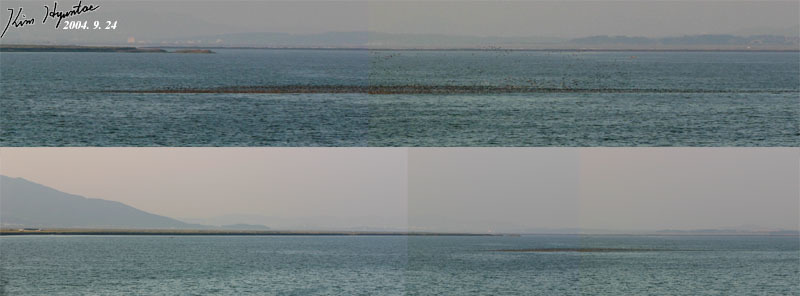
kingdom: Animalia
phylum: Chordata
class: Aves
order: Anseriformes
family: Anatidae
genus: Sibirionetta
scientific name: Sibirionetta formosa
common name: Baikal teal
